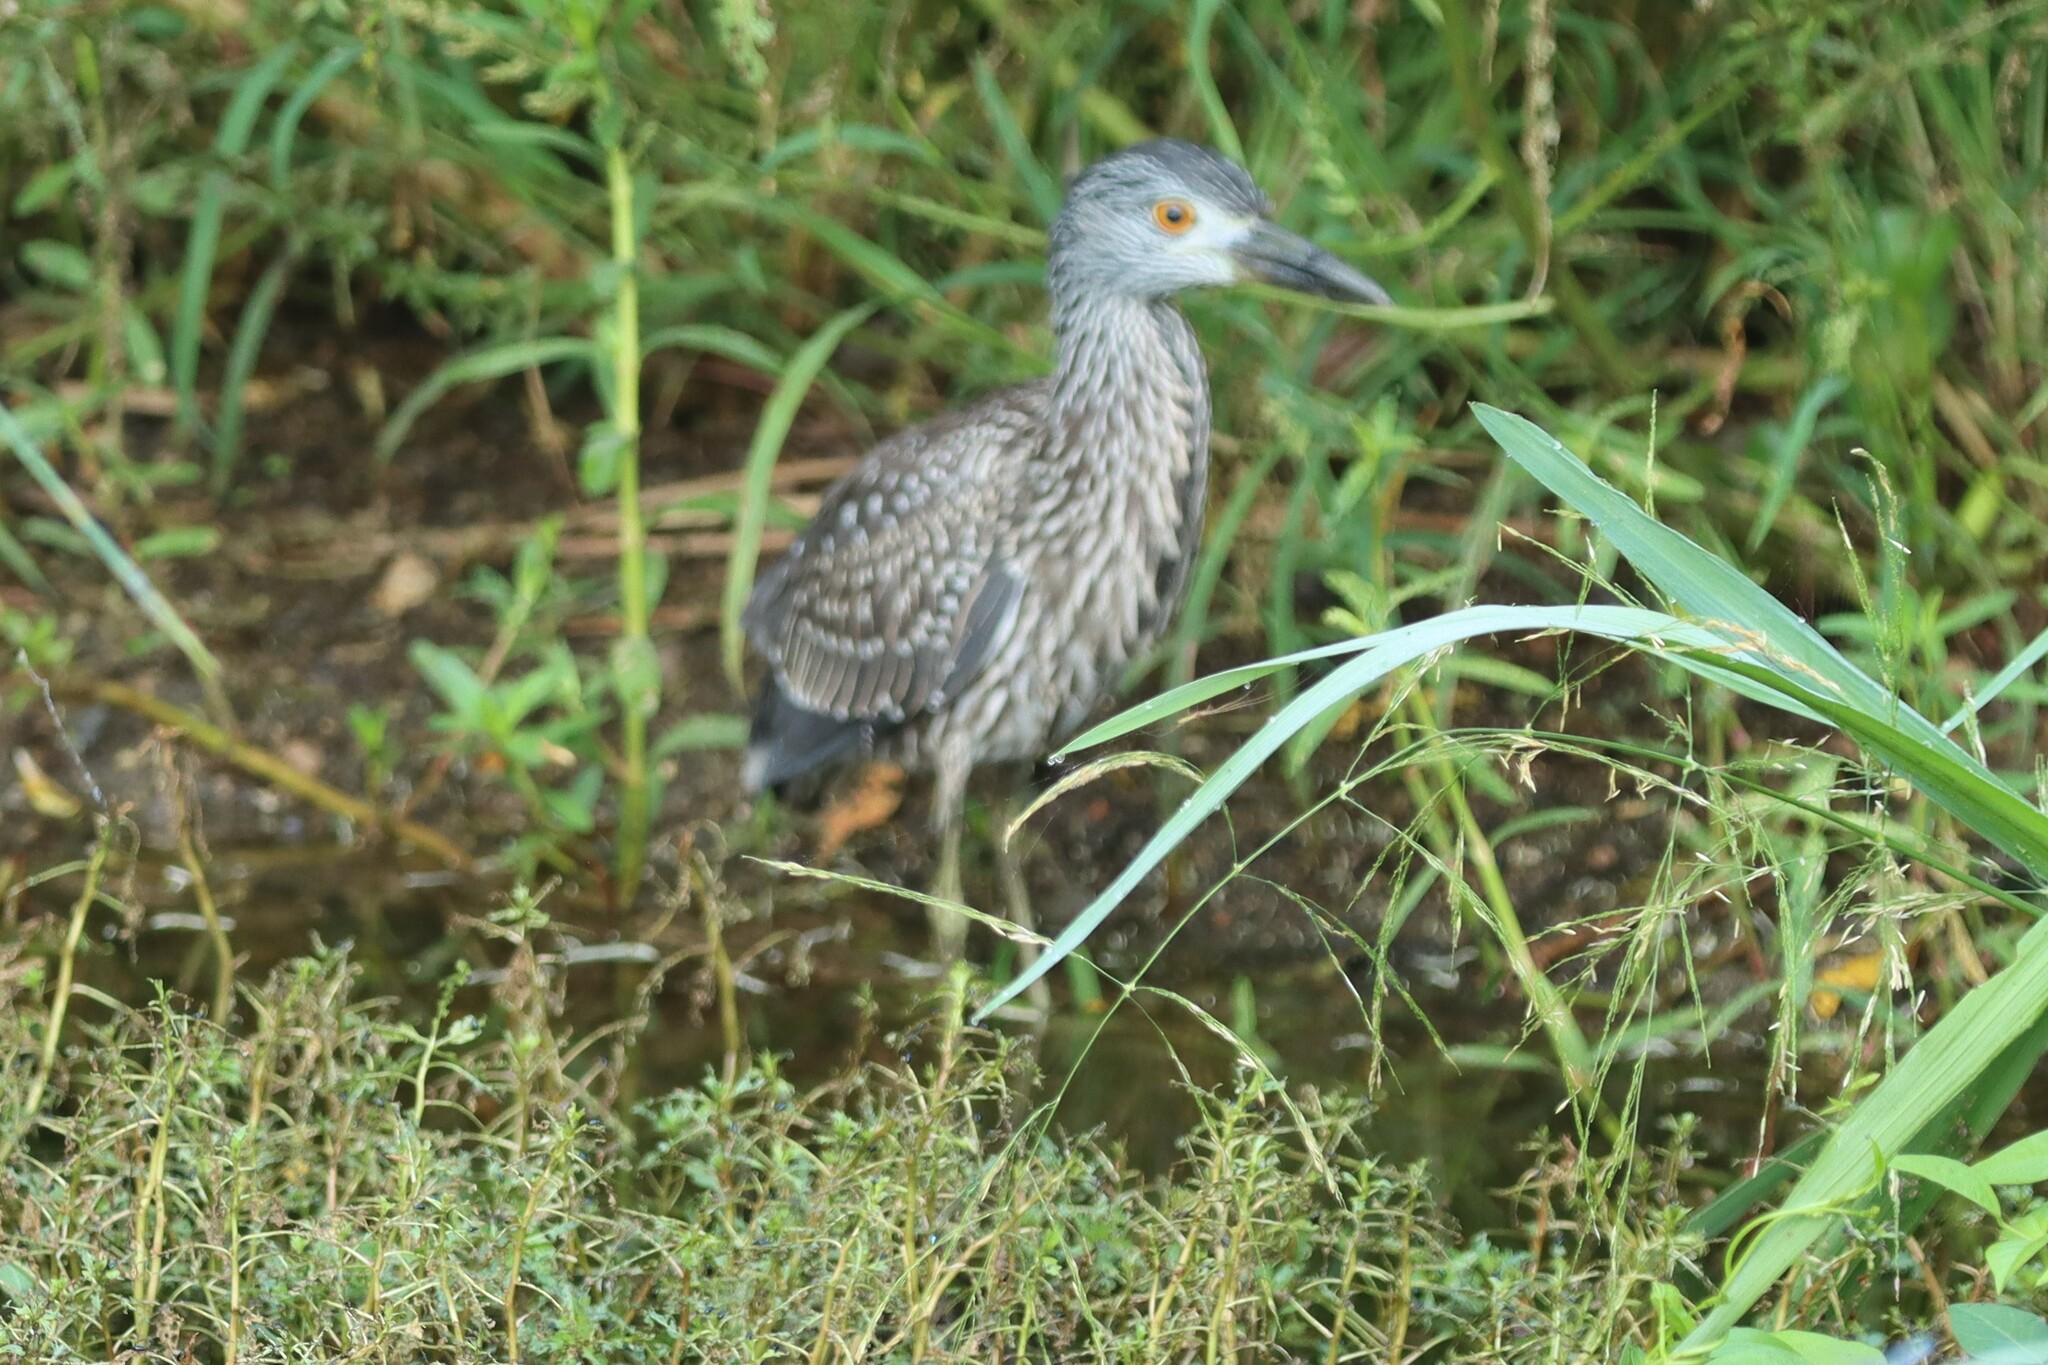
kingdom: Animalia
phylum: Chordata
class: Aves
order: Pelecaniformes
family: Ardeidae
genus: Nyctanassa
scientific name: Nyctanassa violacea
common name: Yellow-crowned night heron
